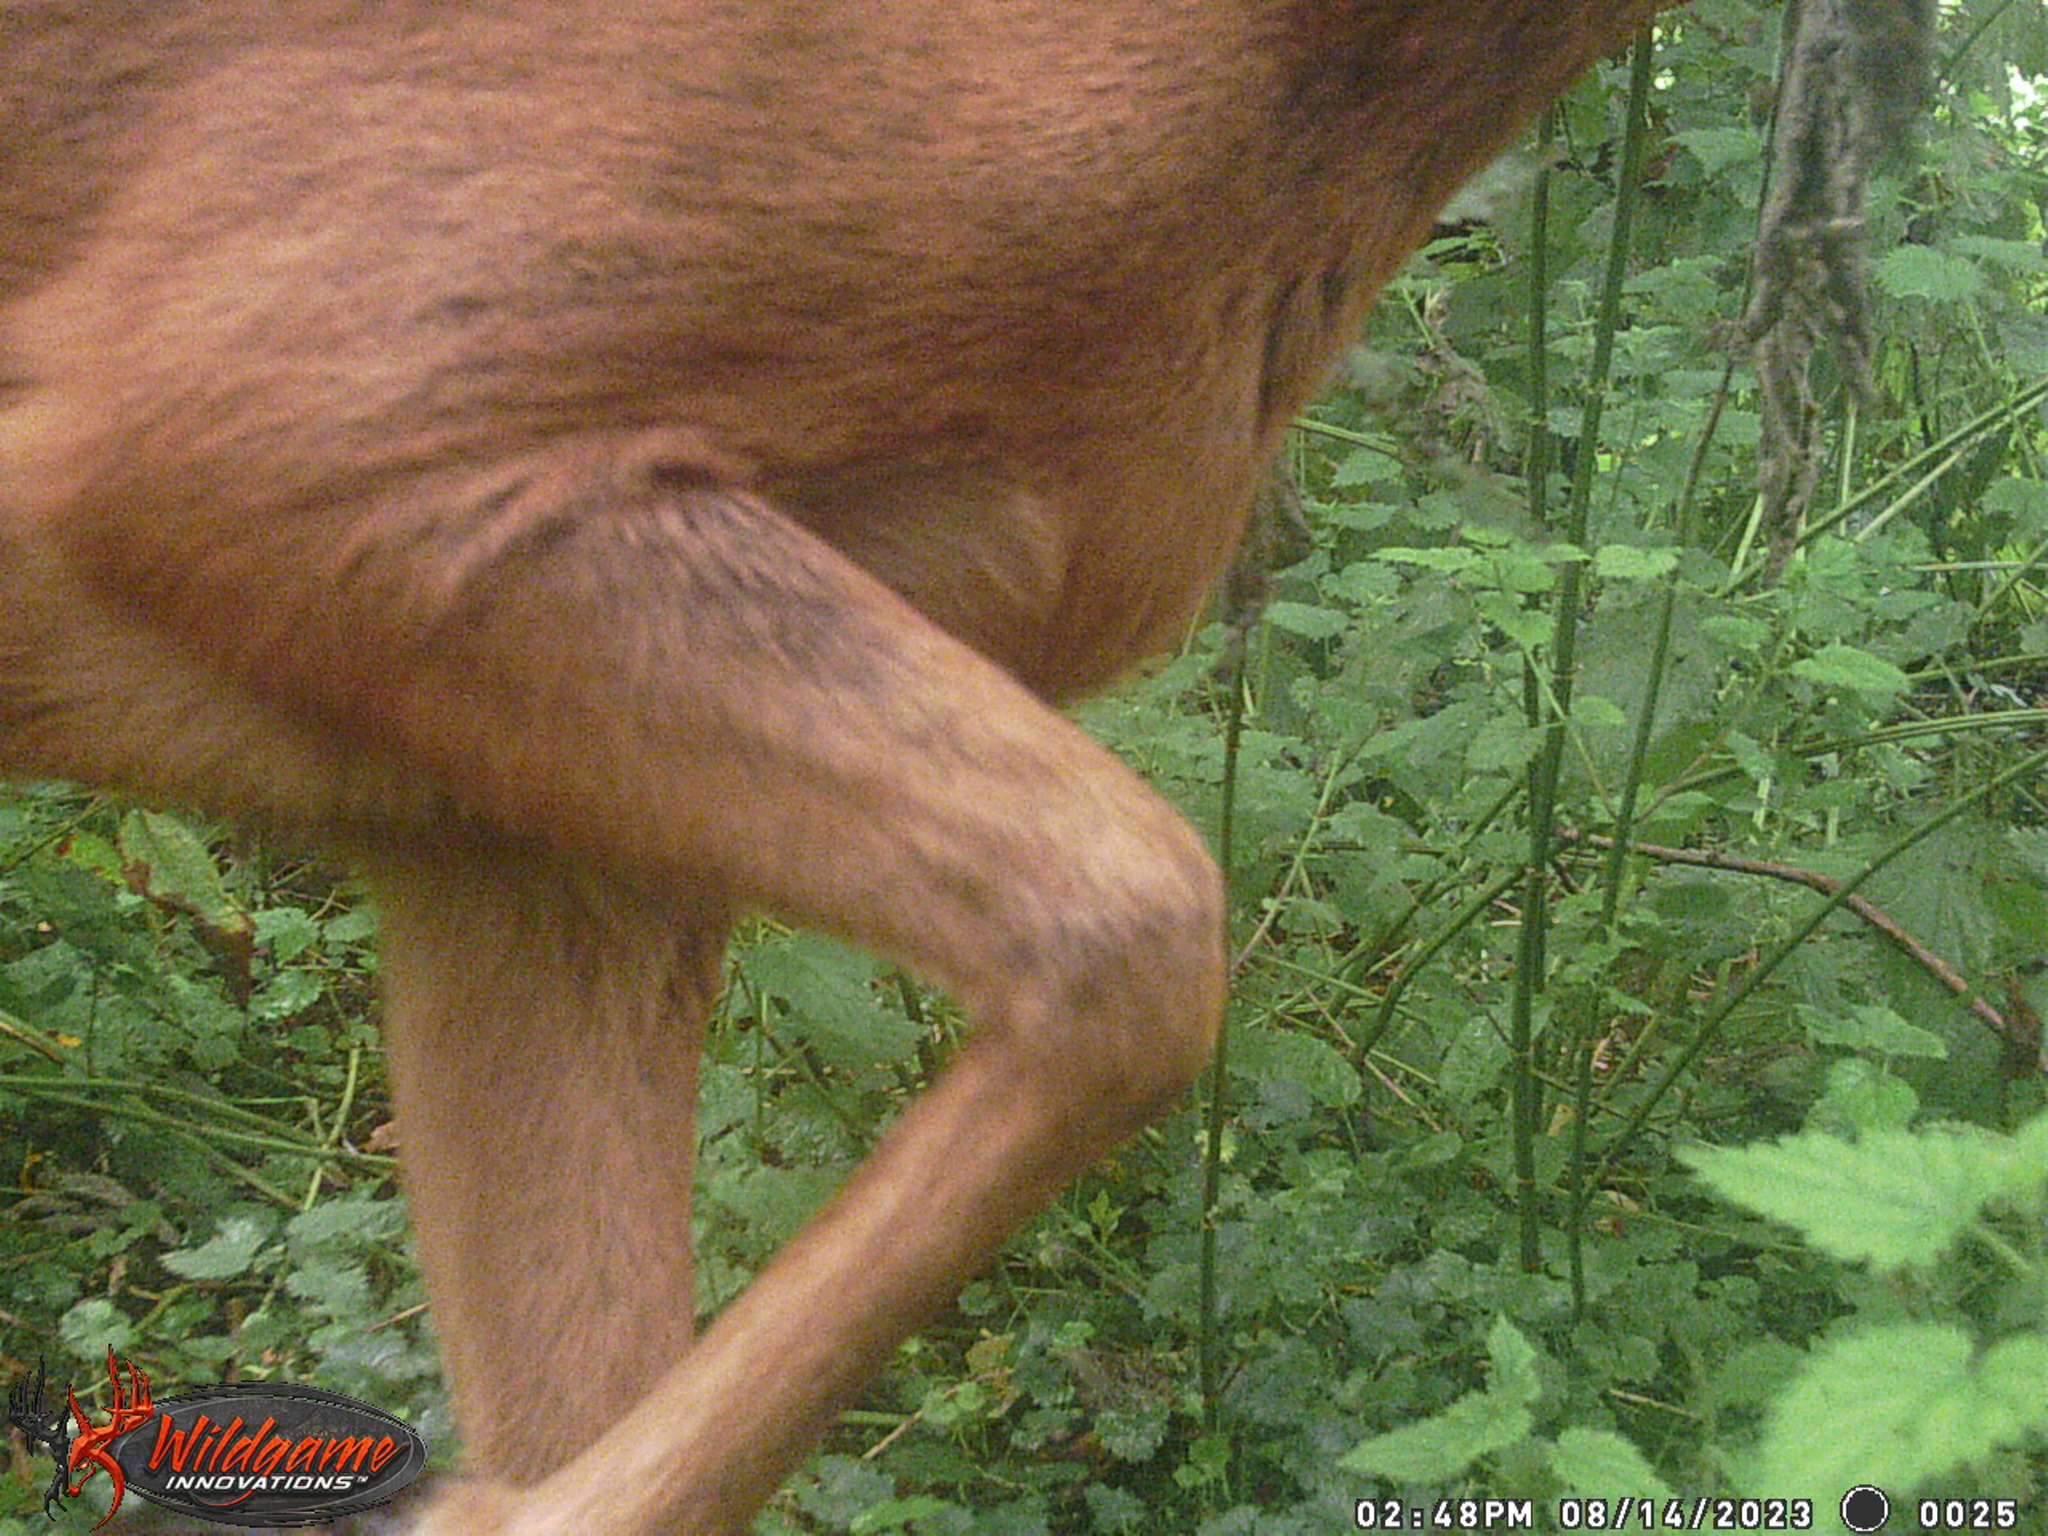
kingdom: Animalia
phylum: Chordata
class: Mammalia
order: Artiodactyla
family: Cervidae
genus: Capreolus
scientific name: Capreolus capreolus
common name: Western roe deer
